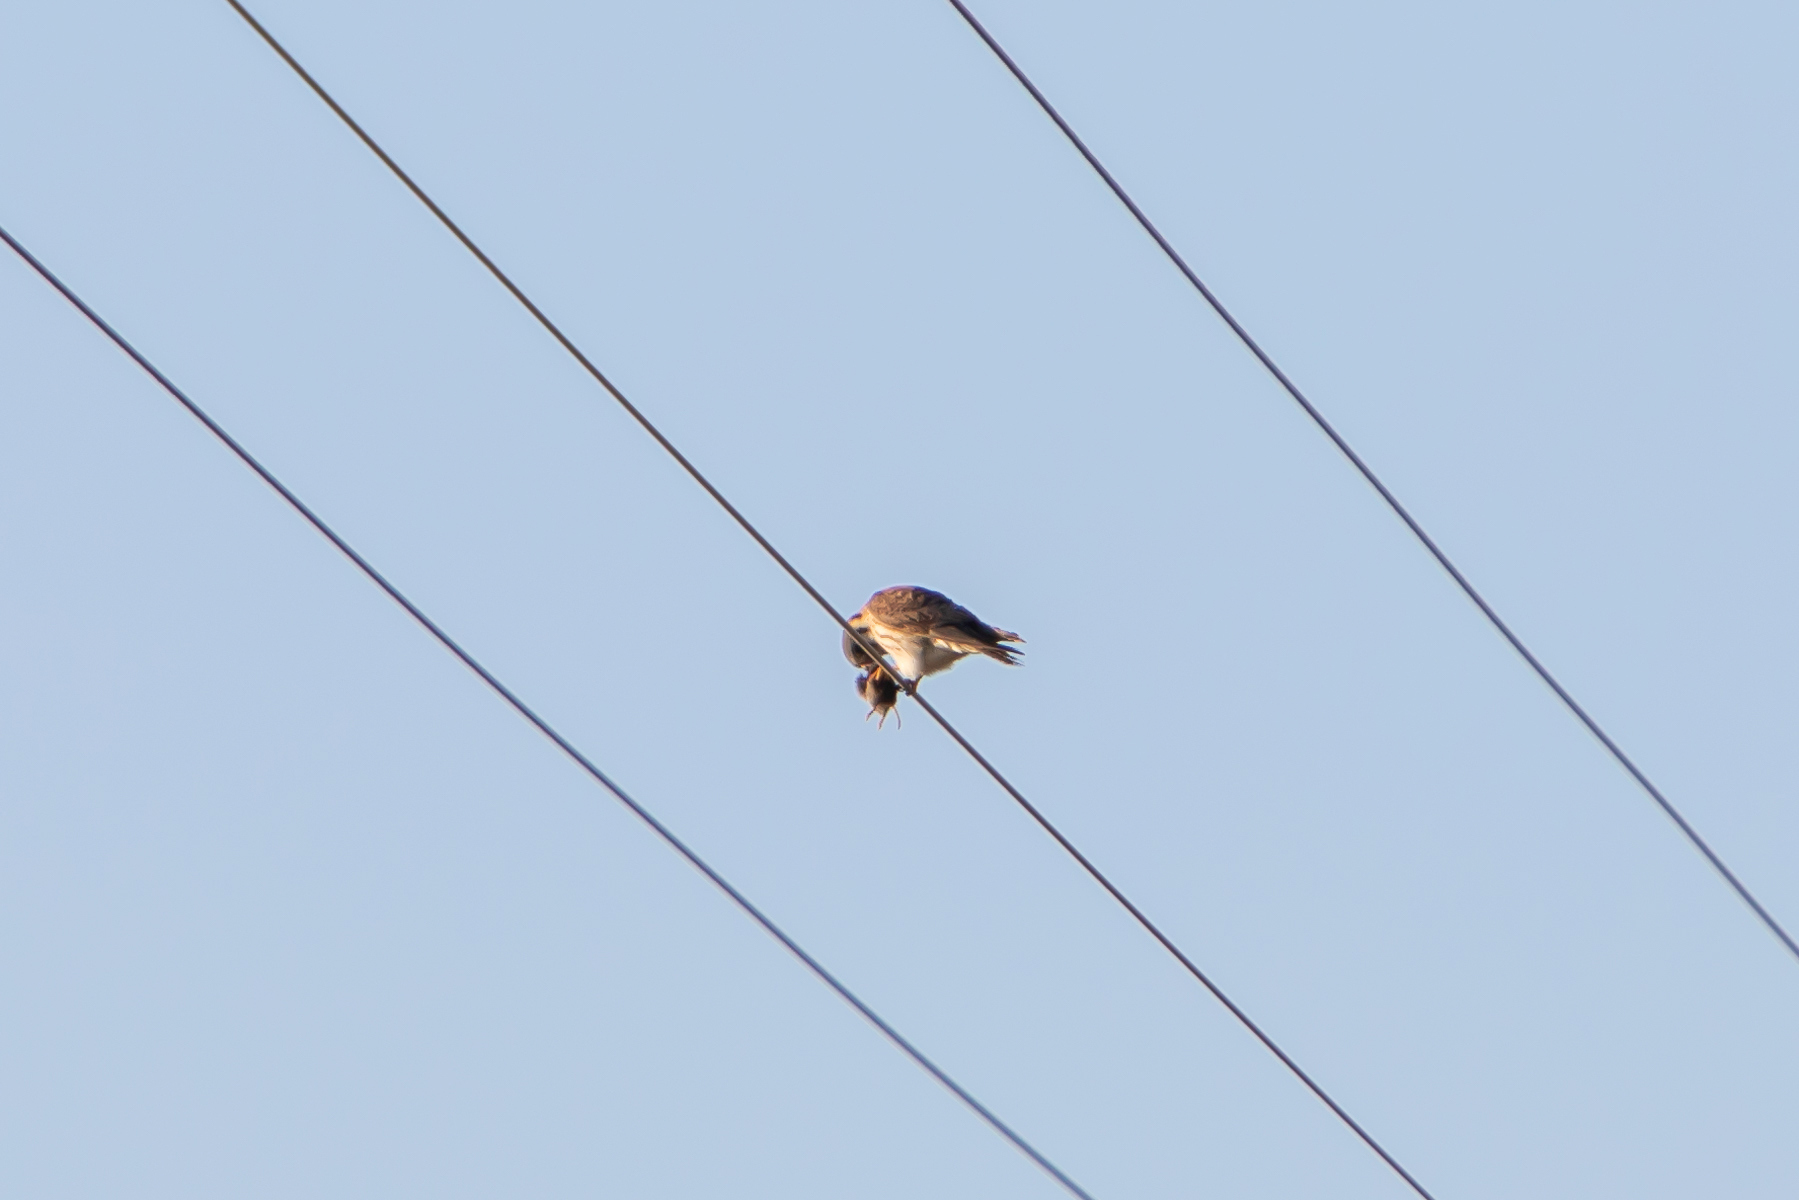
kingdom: Animalia
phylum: Chordata
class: Aves
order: Falconiformes
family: Falconidae
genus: Falco
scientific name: Falco sparverius
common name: American kestrel
